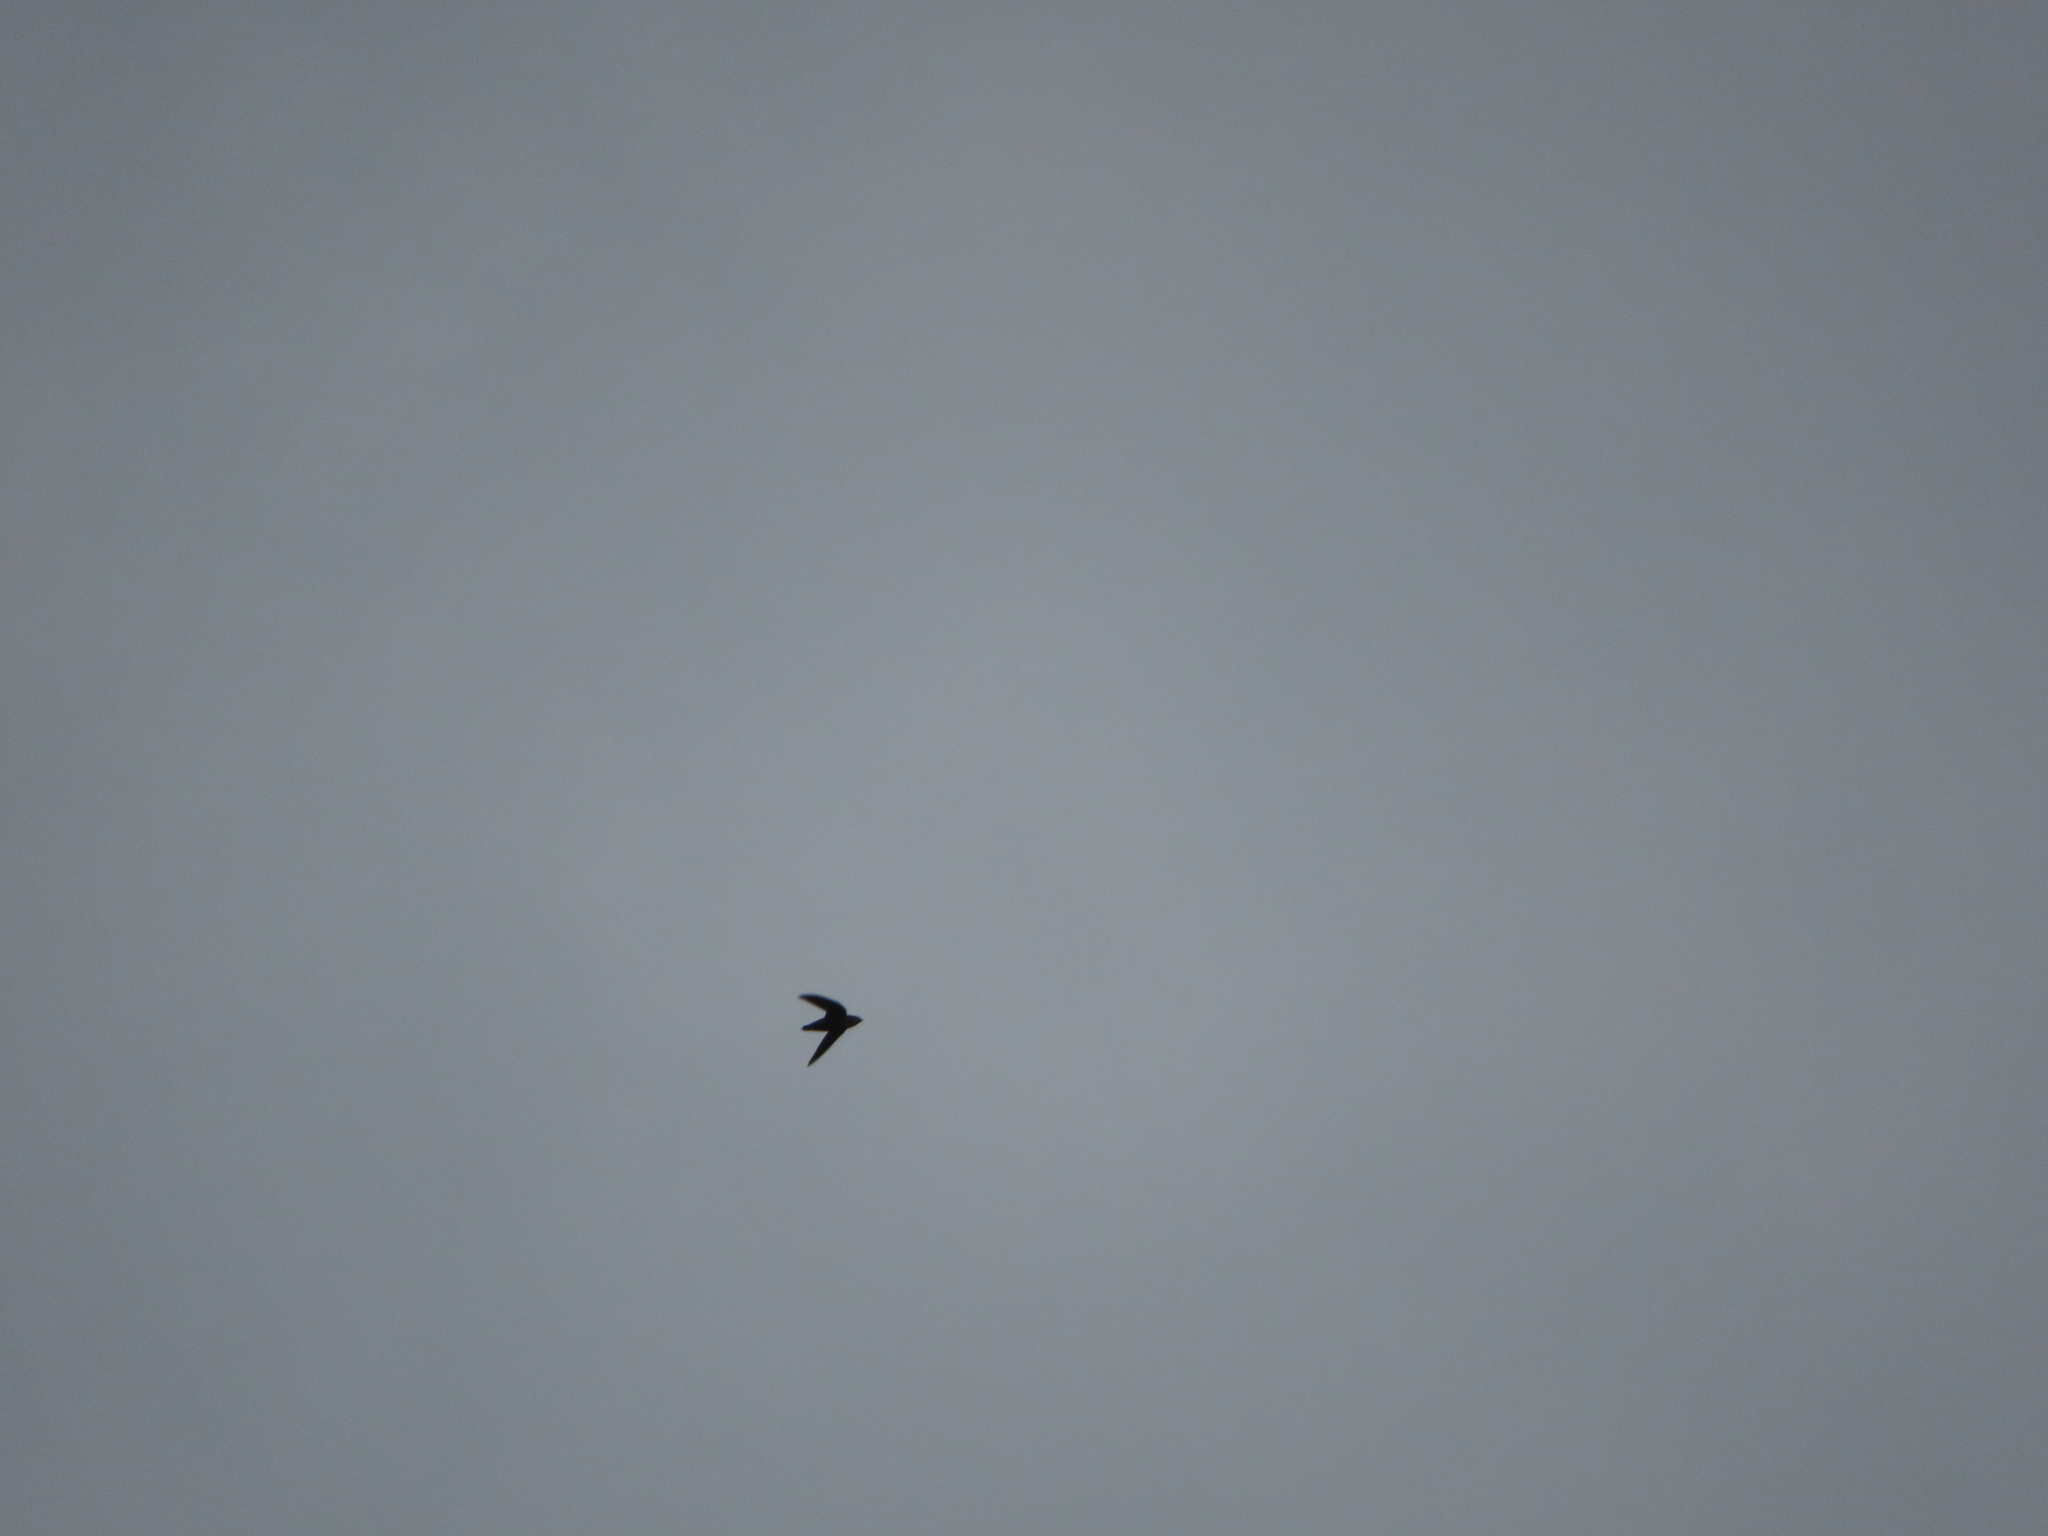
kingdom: Animalia
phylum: Chordata
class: Aves
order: Apodiformes
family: Apodidae
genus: Chaetura
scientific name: Chaetura pelagica
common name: Chimney swift
